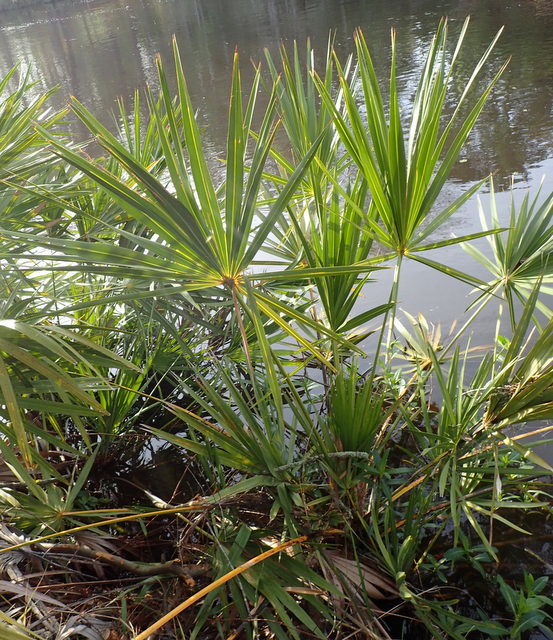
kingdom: Plantae
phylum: Tracheophyta
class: Liliopsida
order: Arecales
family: Arecaceae
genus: Serenoa
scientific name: Serenoa repens
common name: Saw-palmetto
